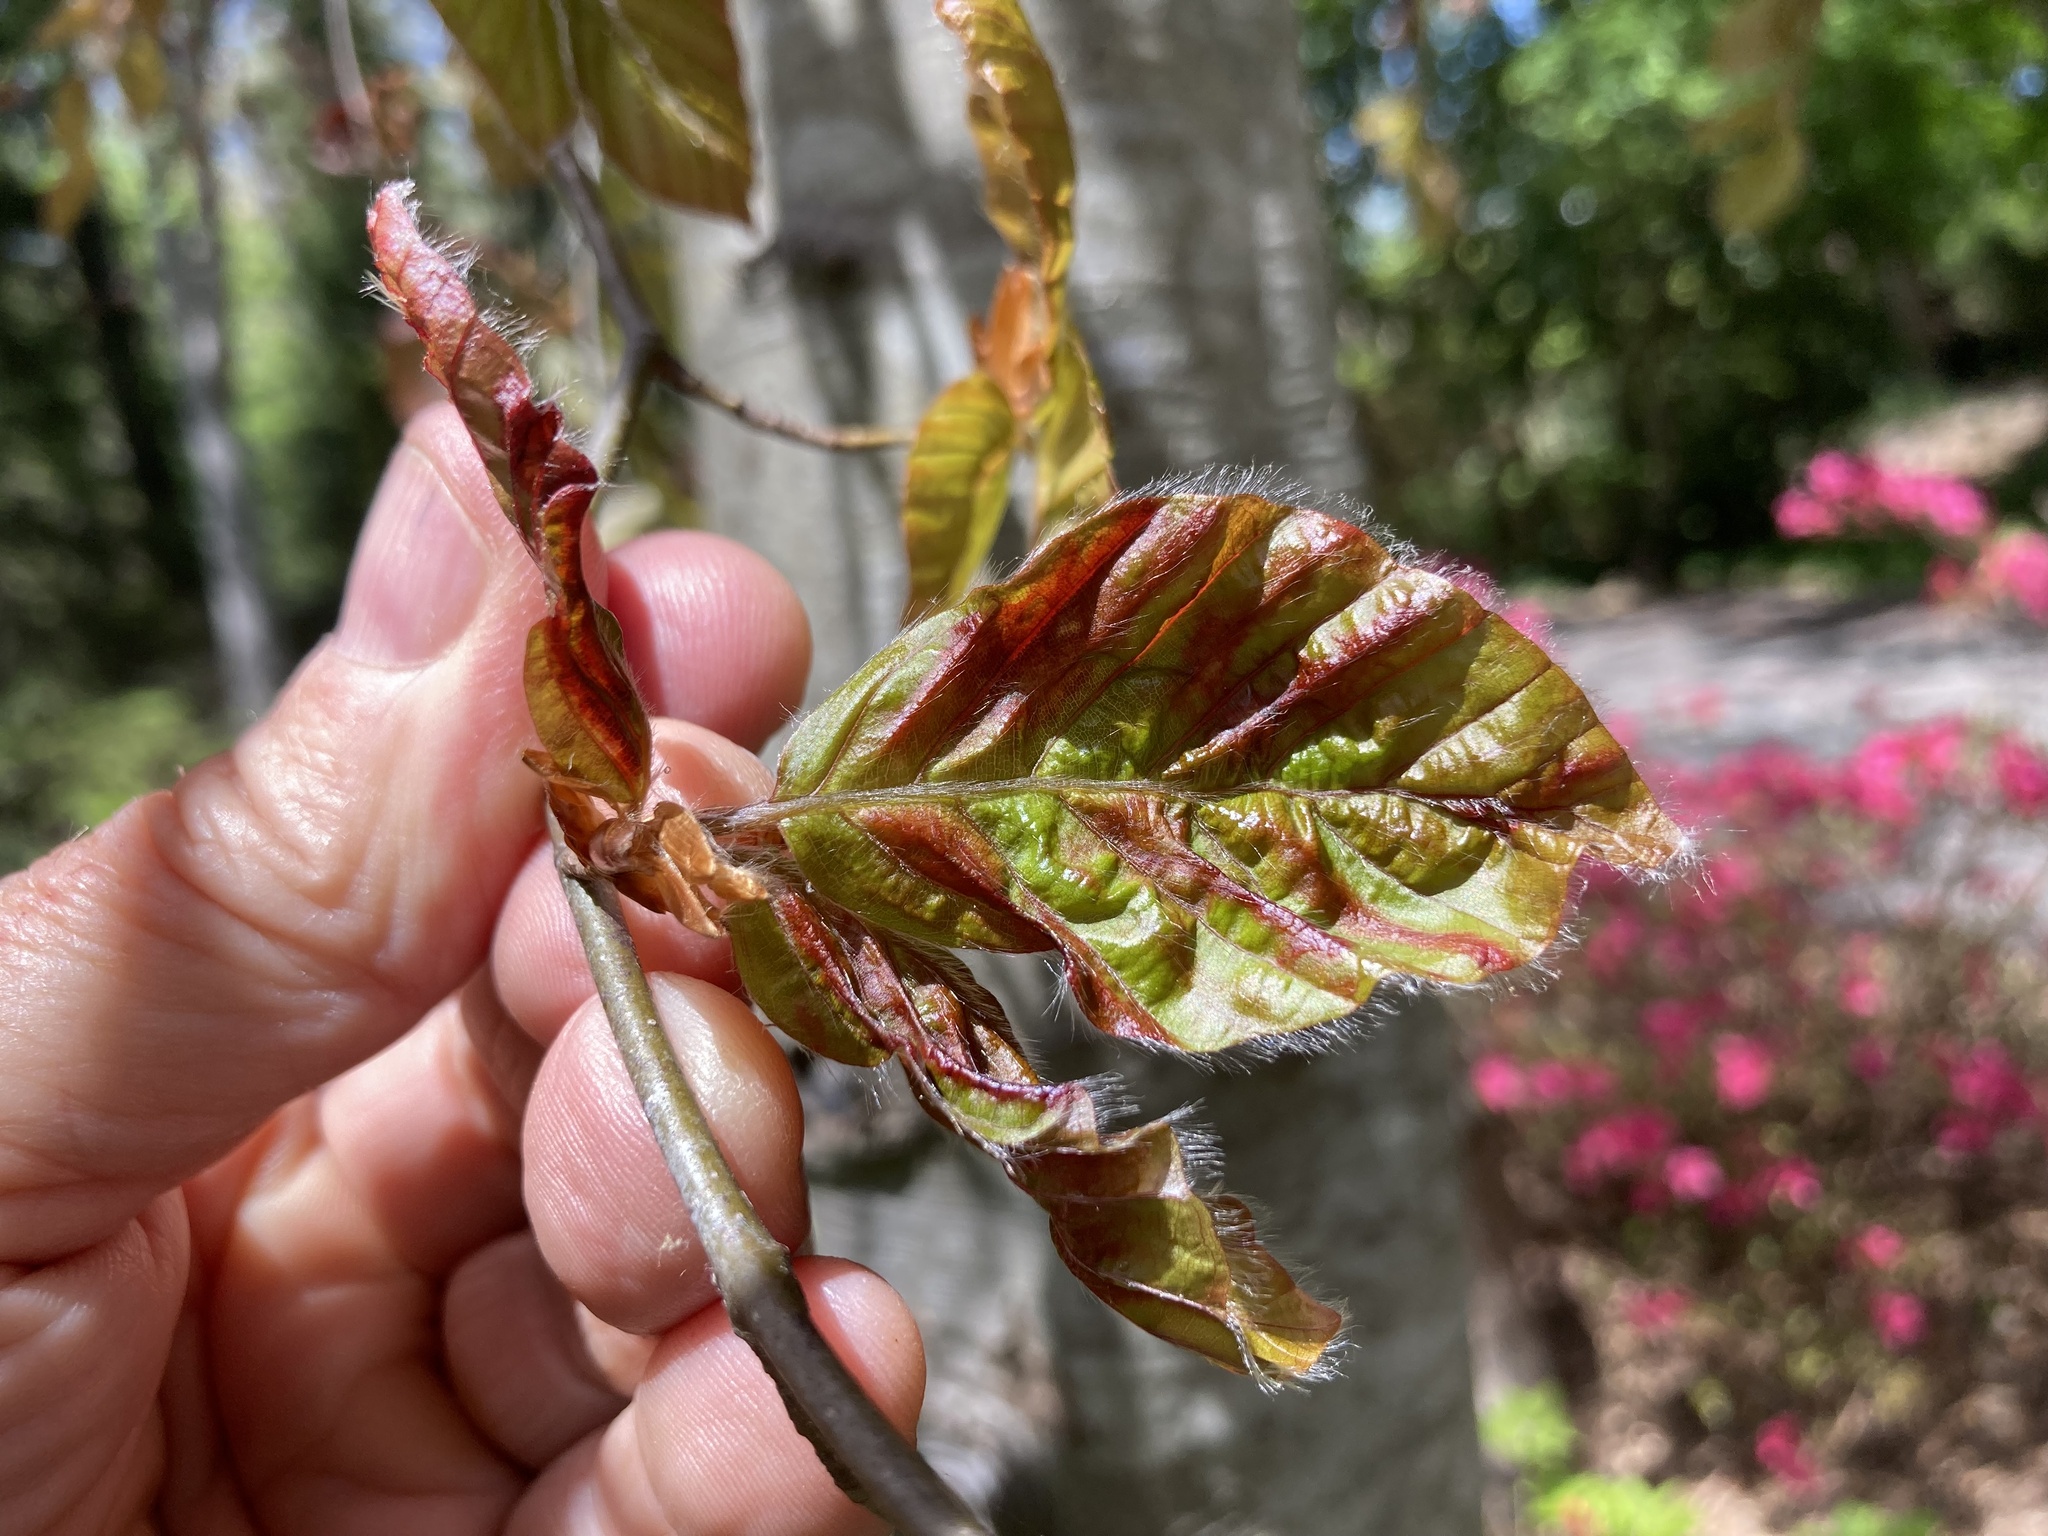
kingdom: Animalia
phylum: Nematoda
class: Chromadorea
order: Rhabditida
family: Anguinidae
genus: Litylenchus
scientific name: Litylenchus crenatae
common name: Beech leaf disease
